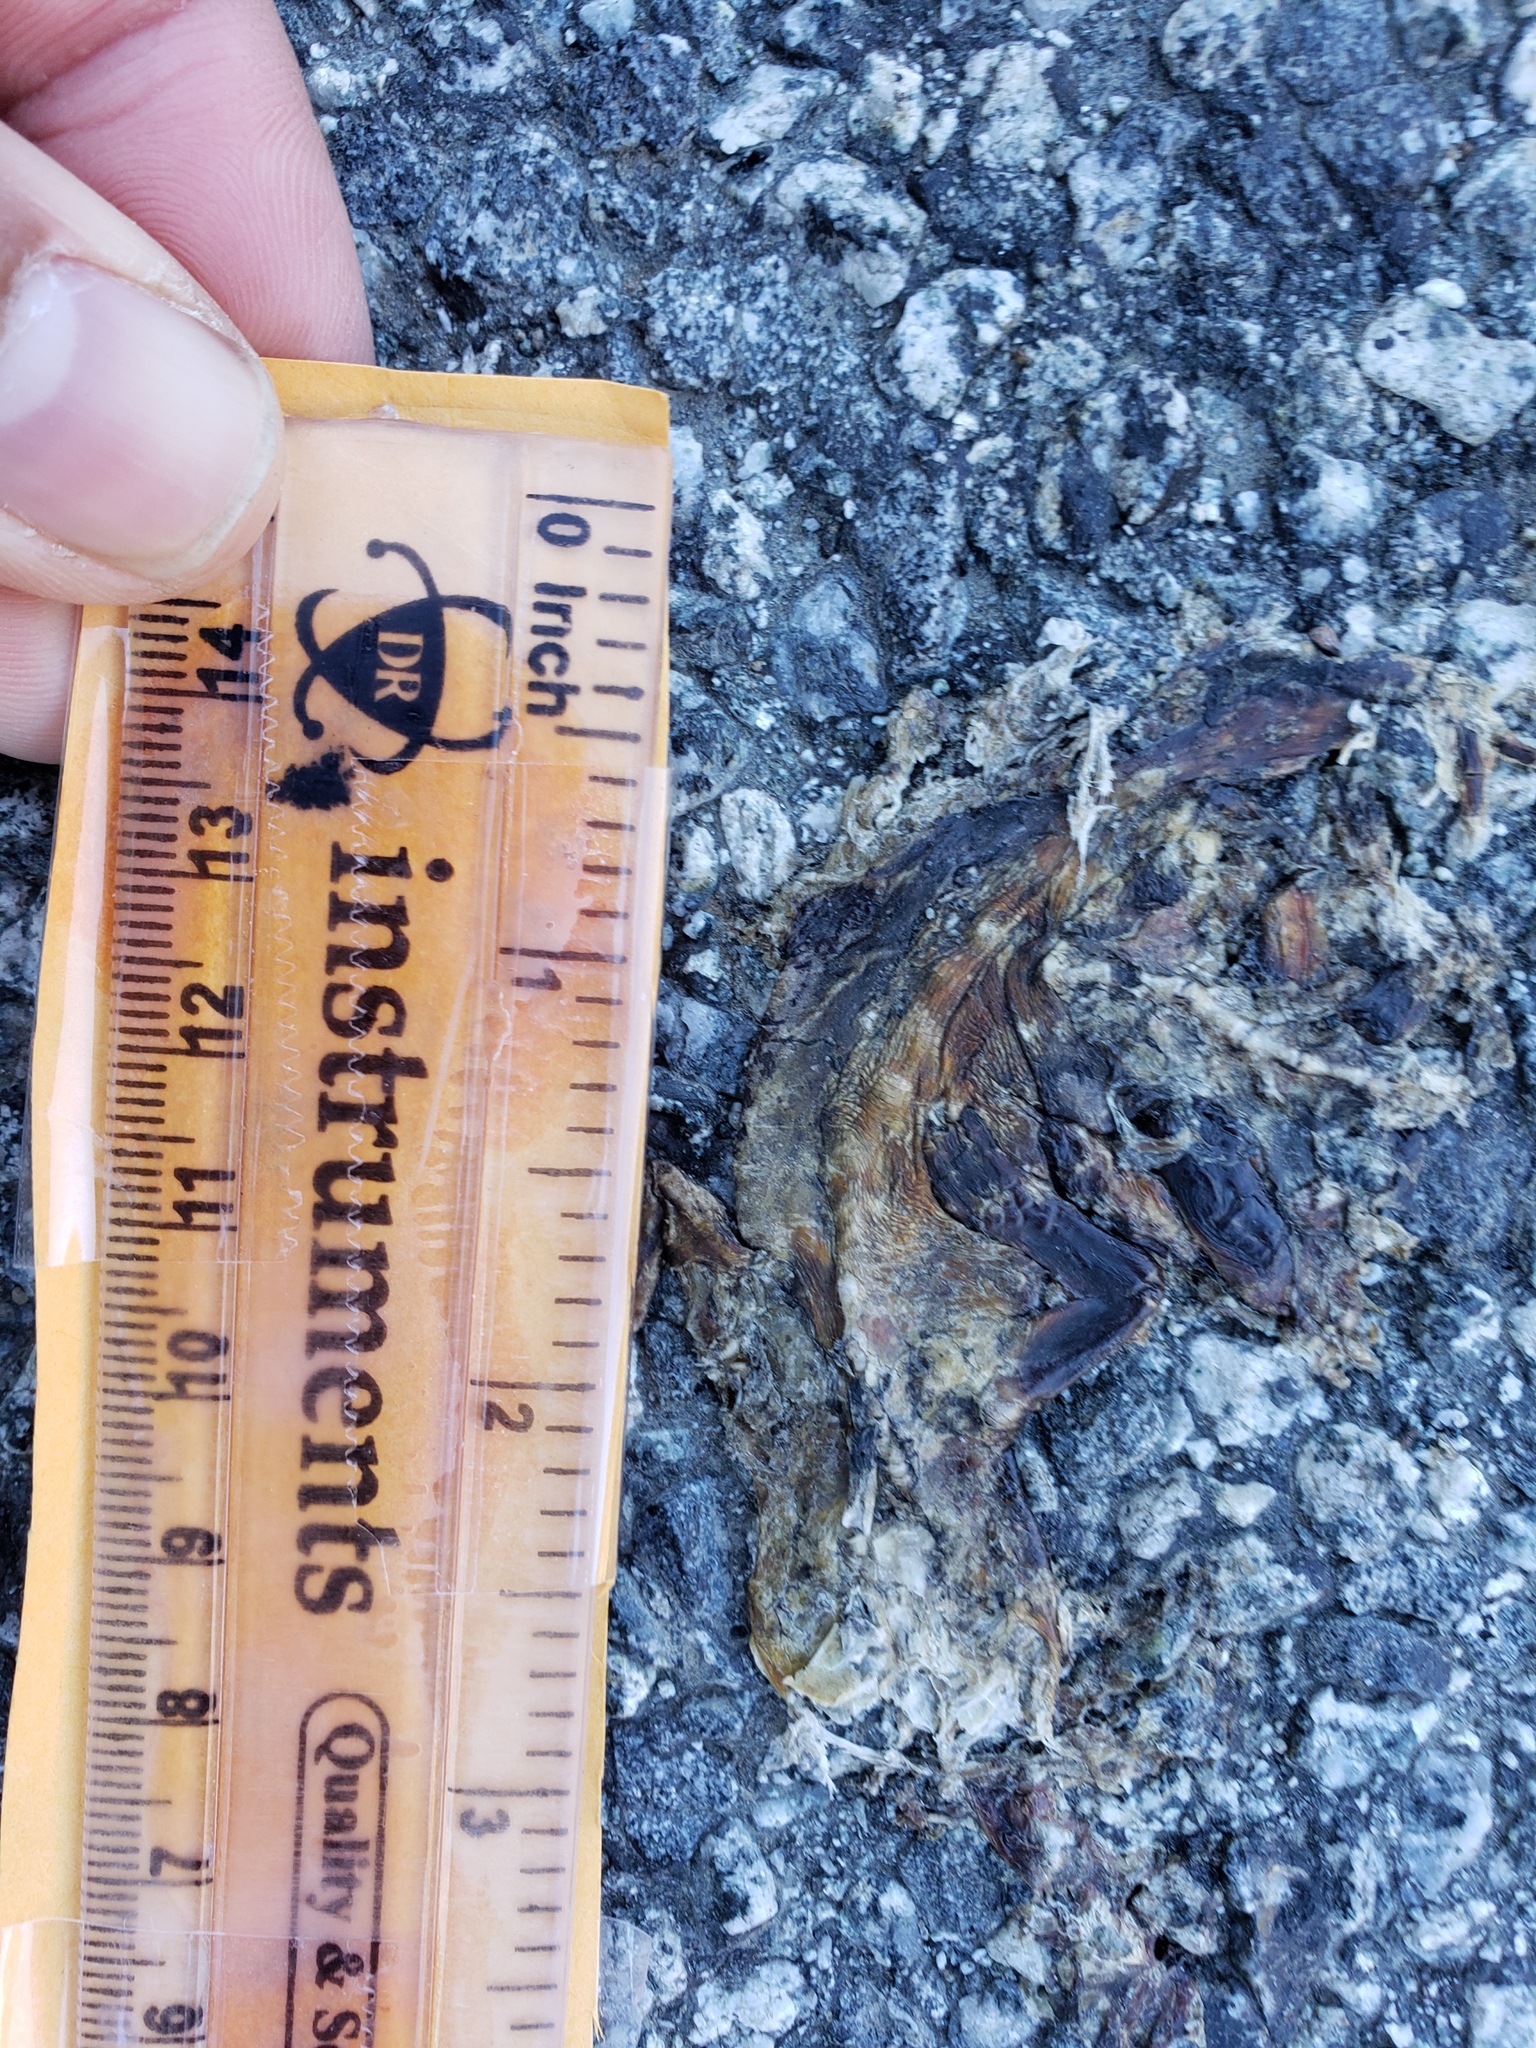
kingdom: Animalia
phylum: Chordata
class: Amphibia
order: Caudata
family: Salamandridae
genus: Taricha
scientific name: Taricha
